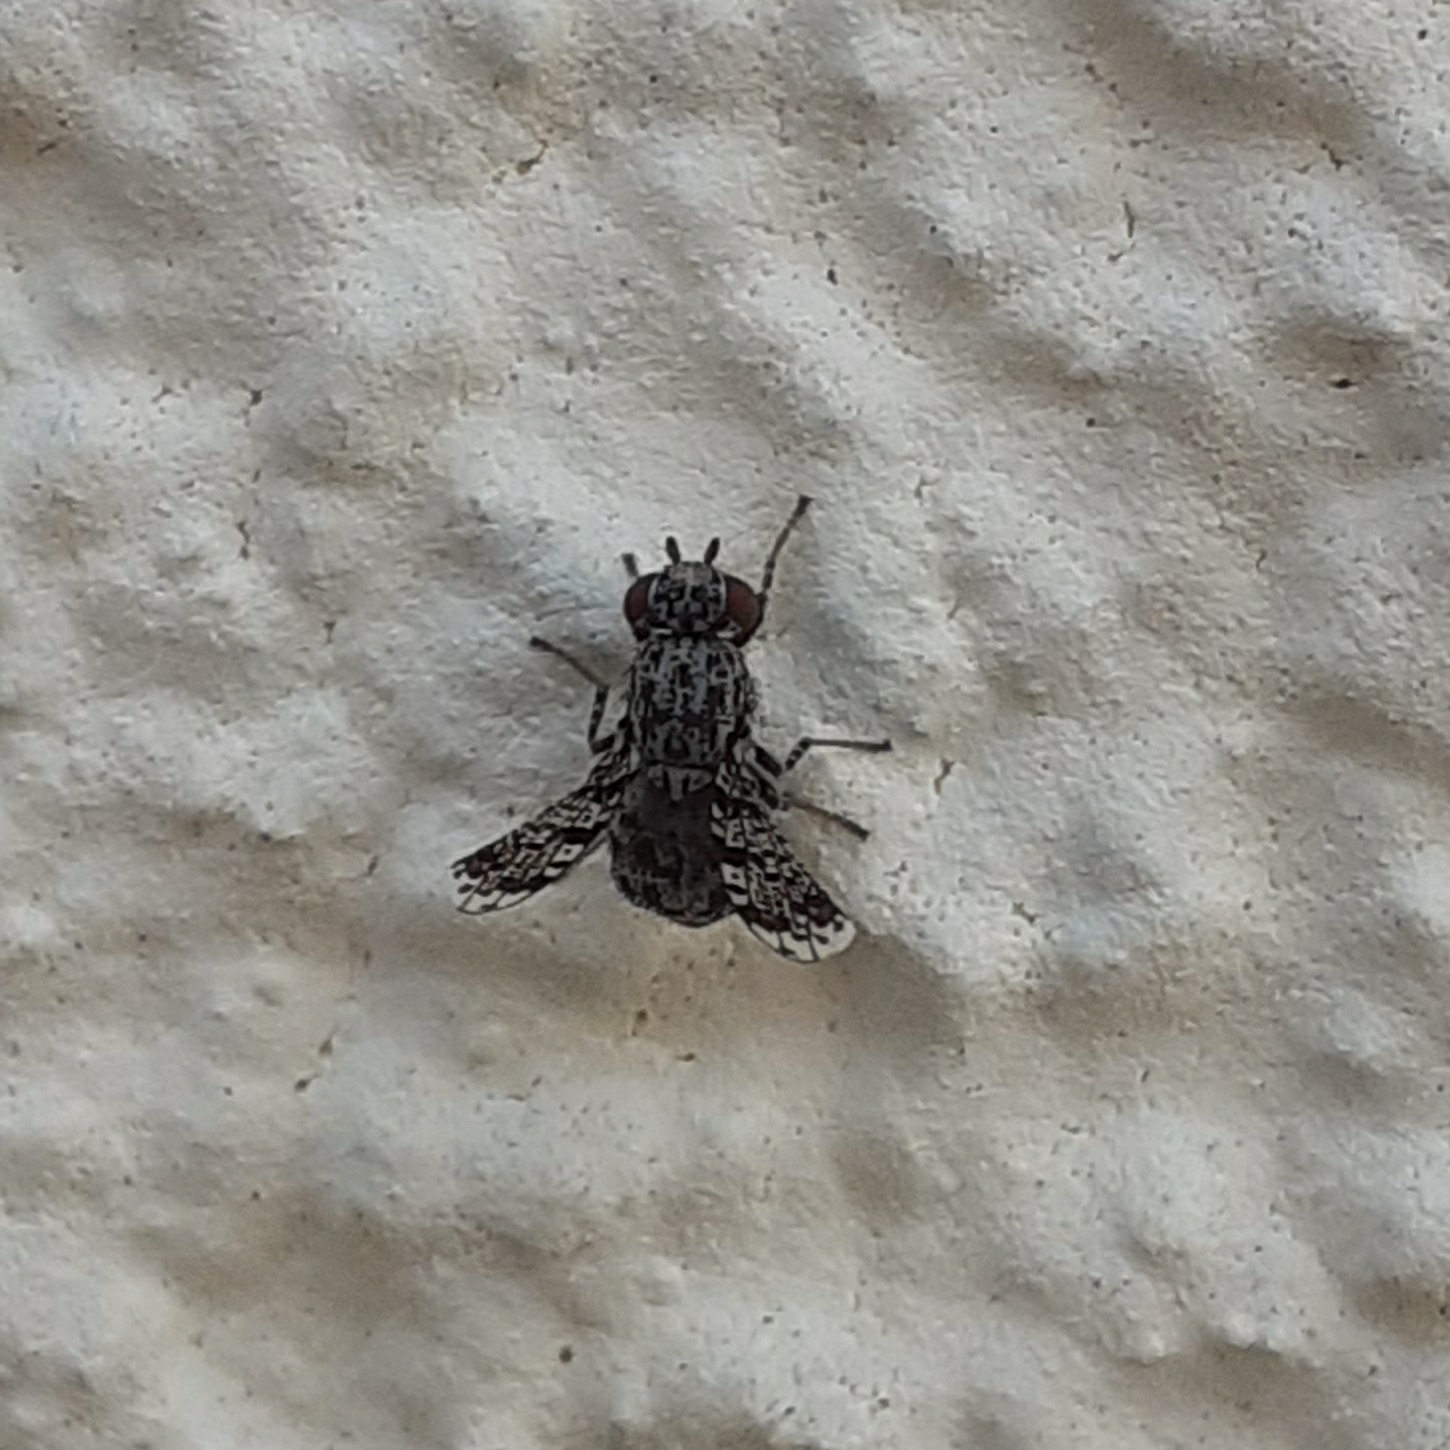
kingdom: Animalia
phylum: Arthropoda
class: Insecta
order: Diptera
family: Ulidiidae
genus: Callopistromyia
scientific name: Callopistromyia annulipes
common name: Peacock fly
